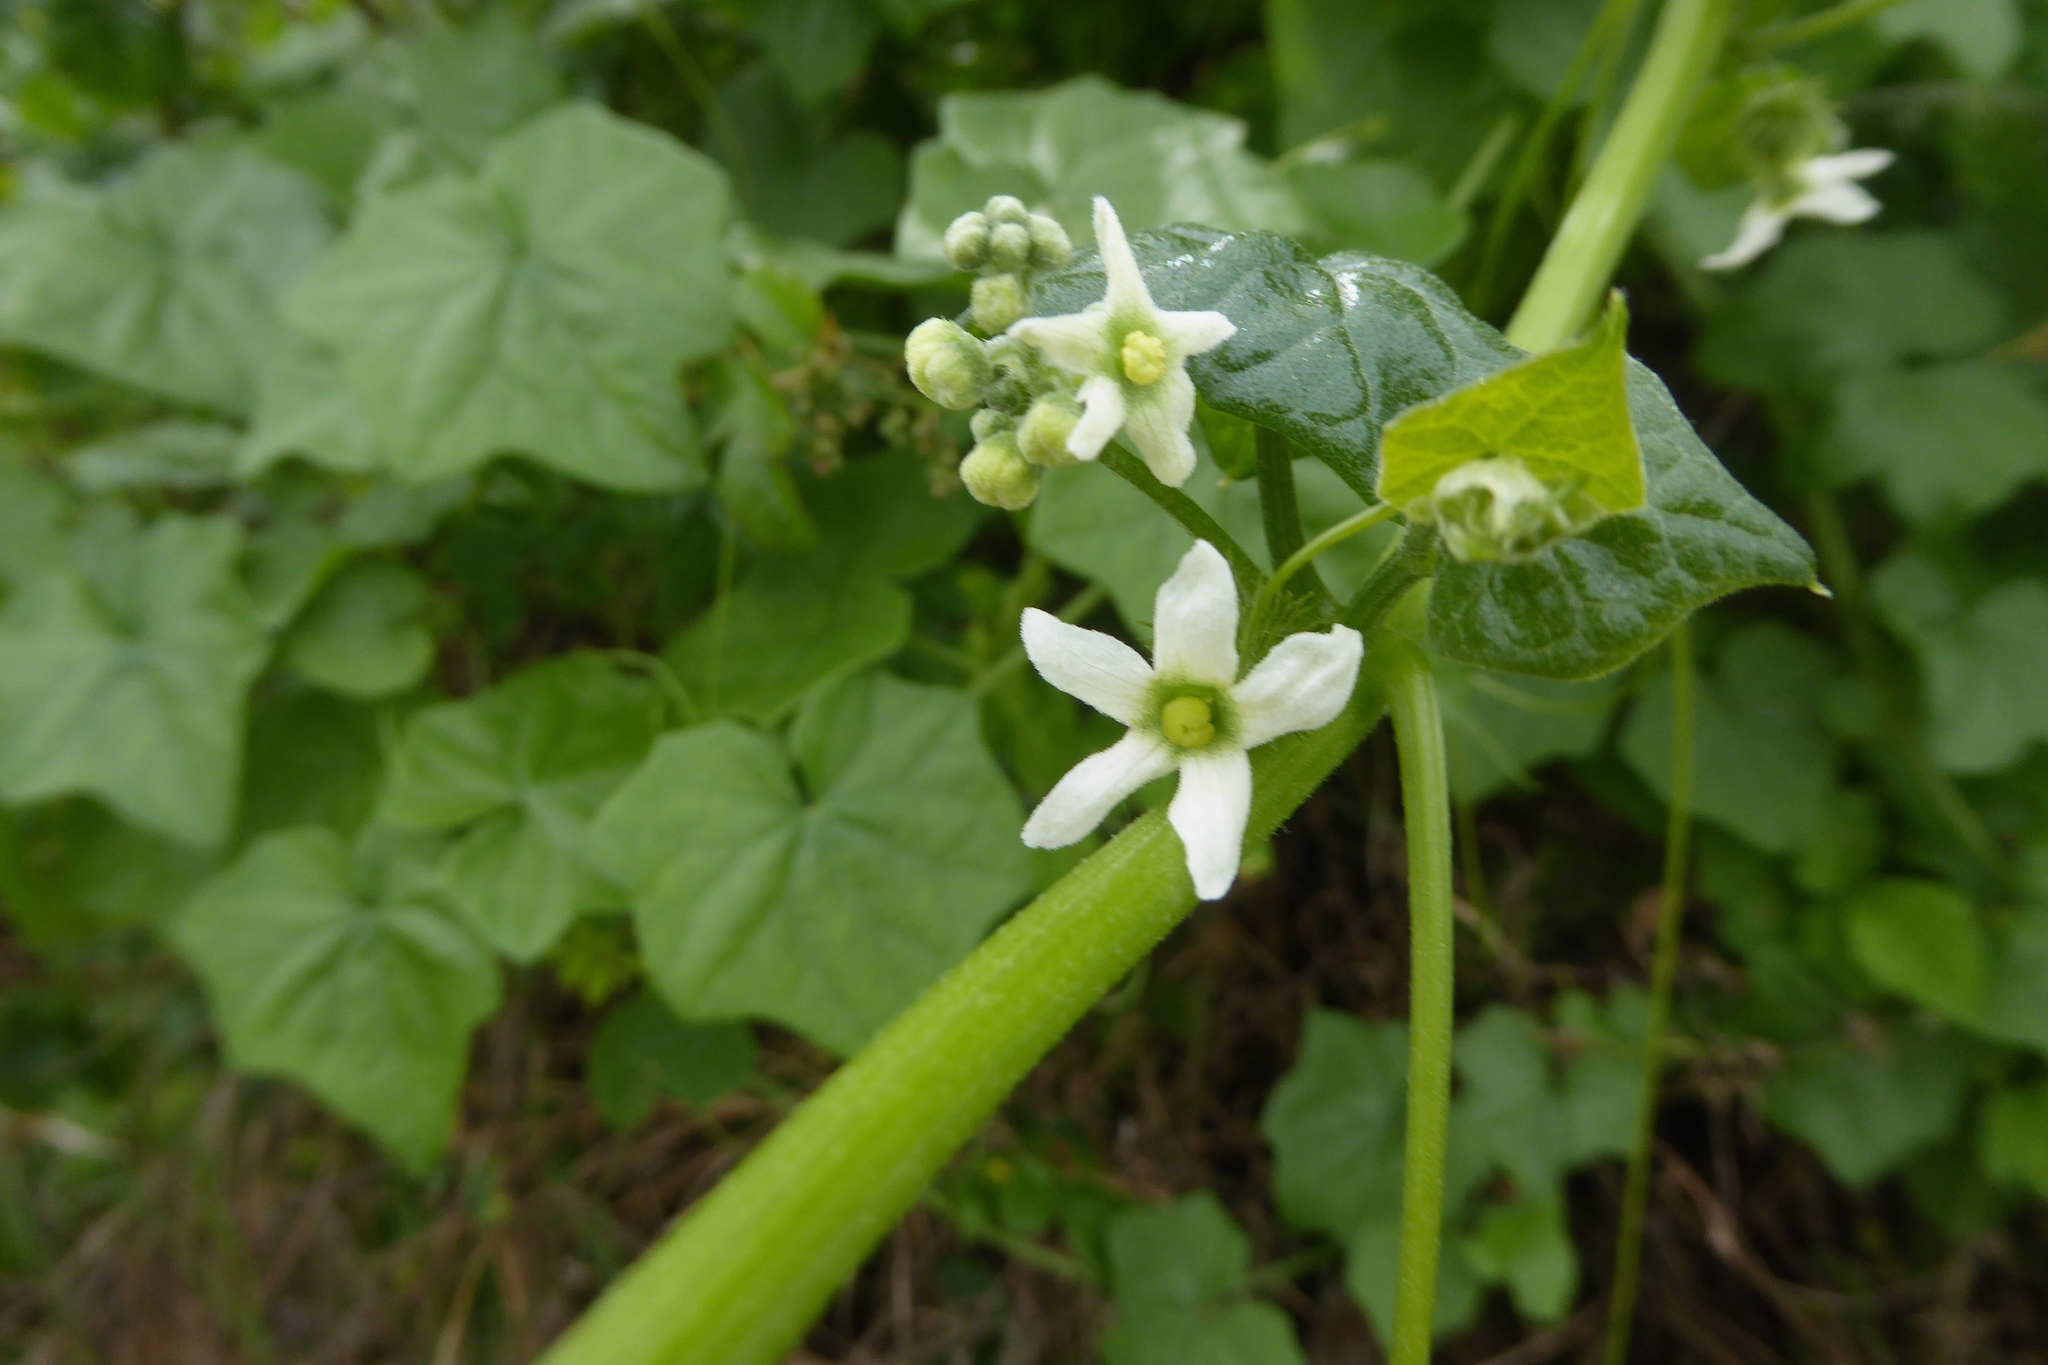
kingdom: Plantae
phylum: Tracheophyta
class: Magnoliopsida
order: Cucurbitales
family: Cucurbitaceae
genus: Marah
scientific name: Marah fabacea
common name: California manroot
